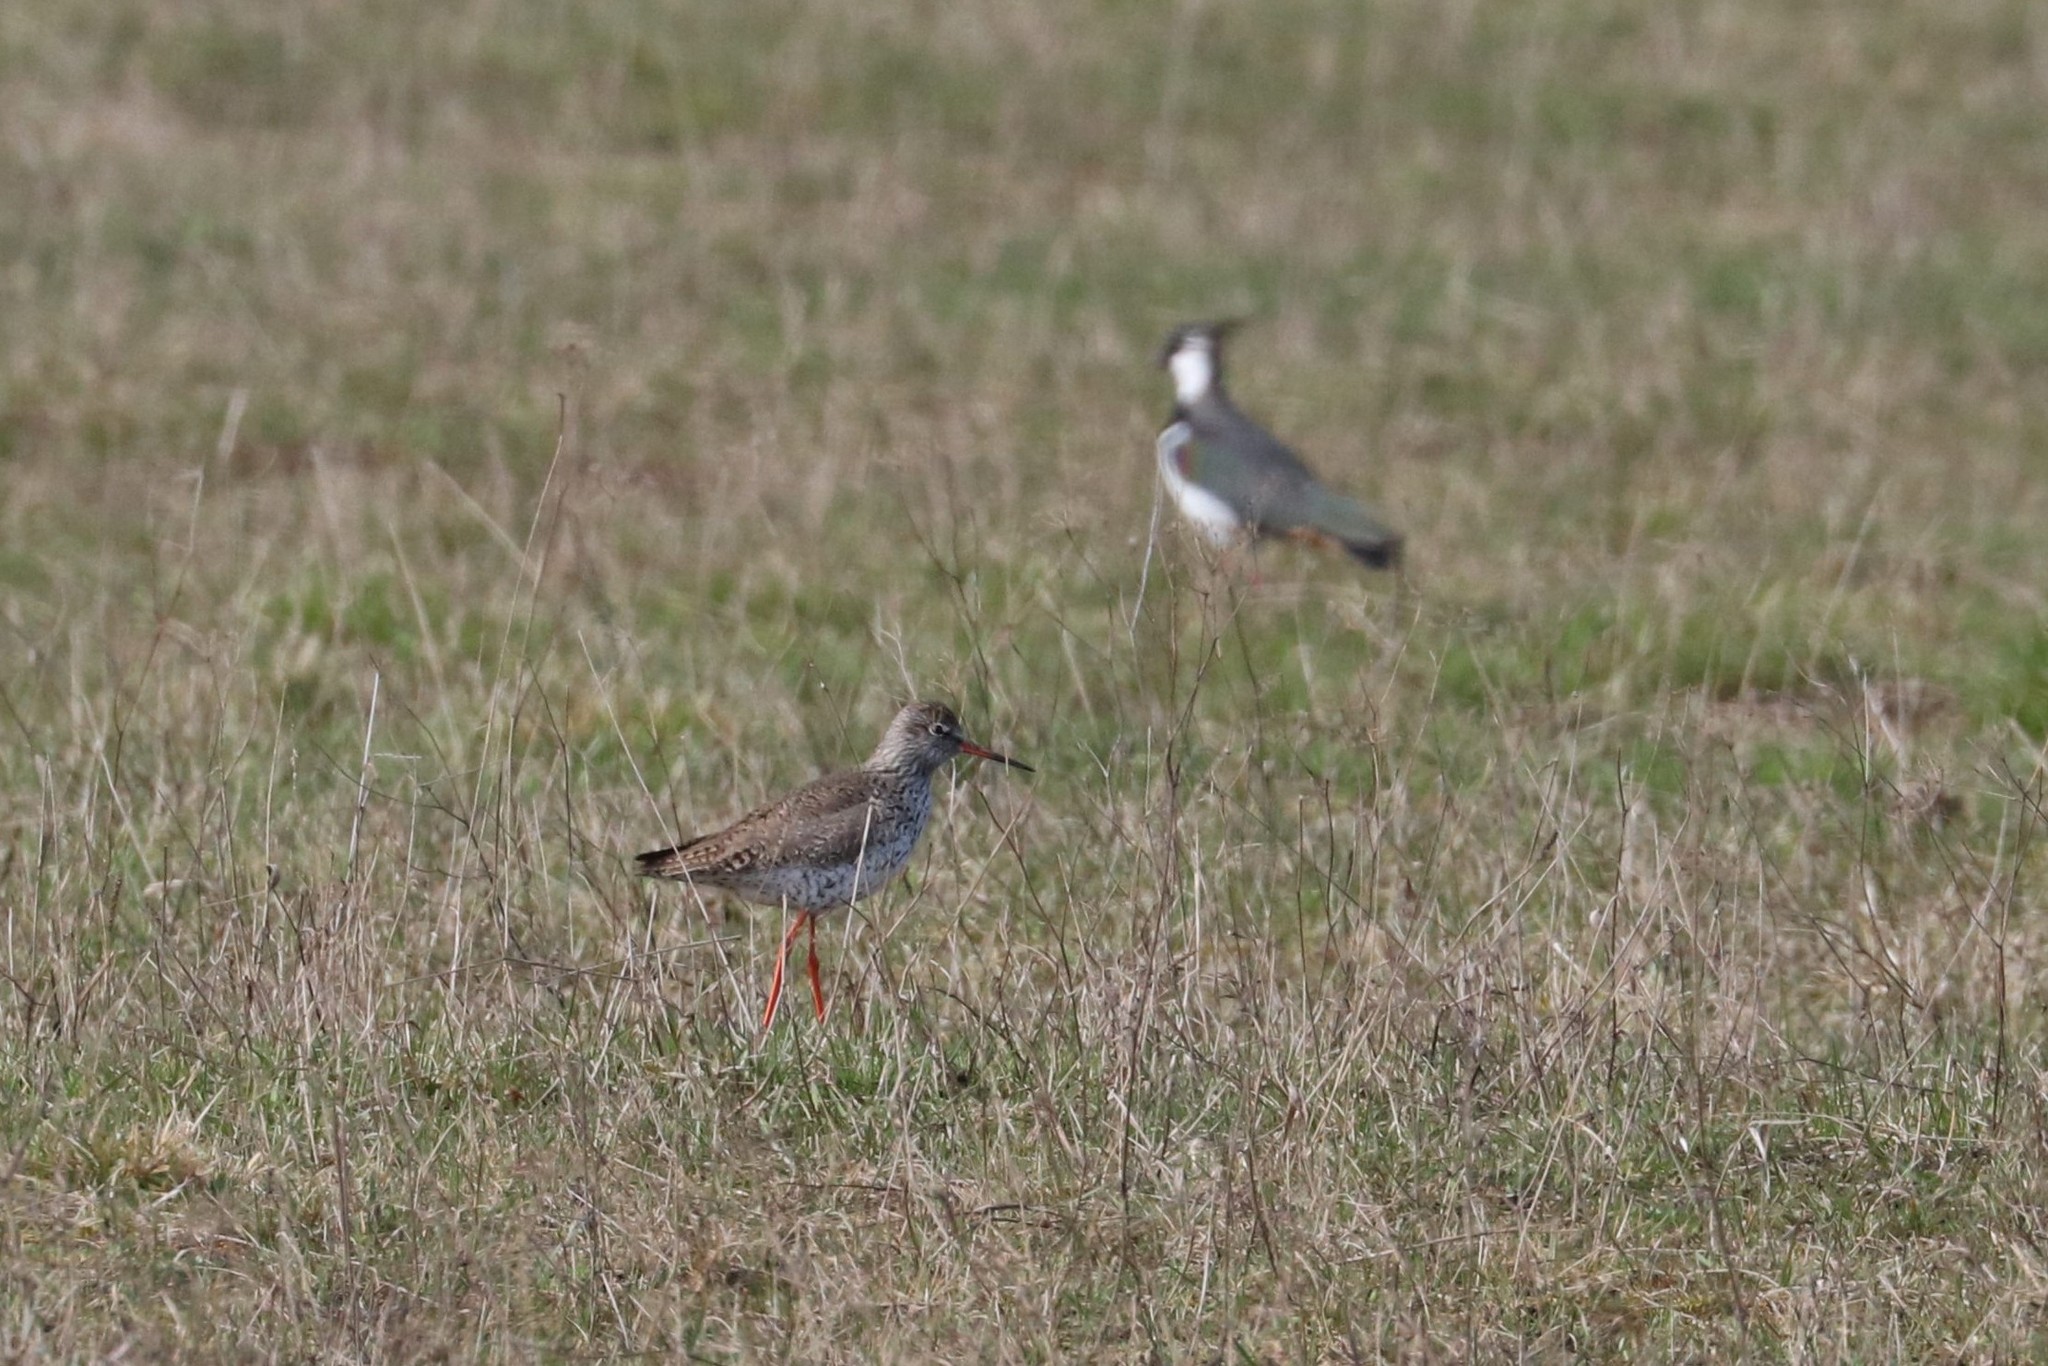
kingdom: Animalia
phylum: Chordata
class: Aves
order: Charadriiformes
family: Scolopacidae
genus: Tringa
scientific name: Tringa totanus
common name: Common redshank
